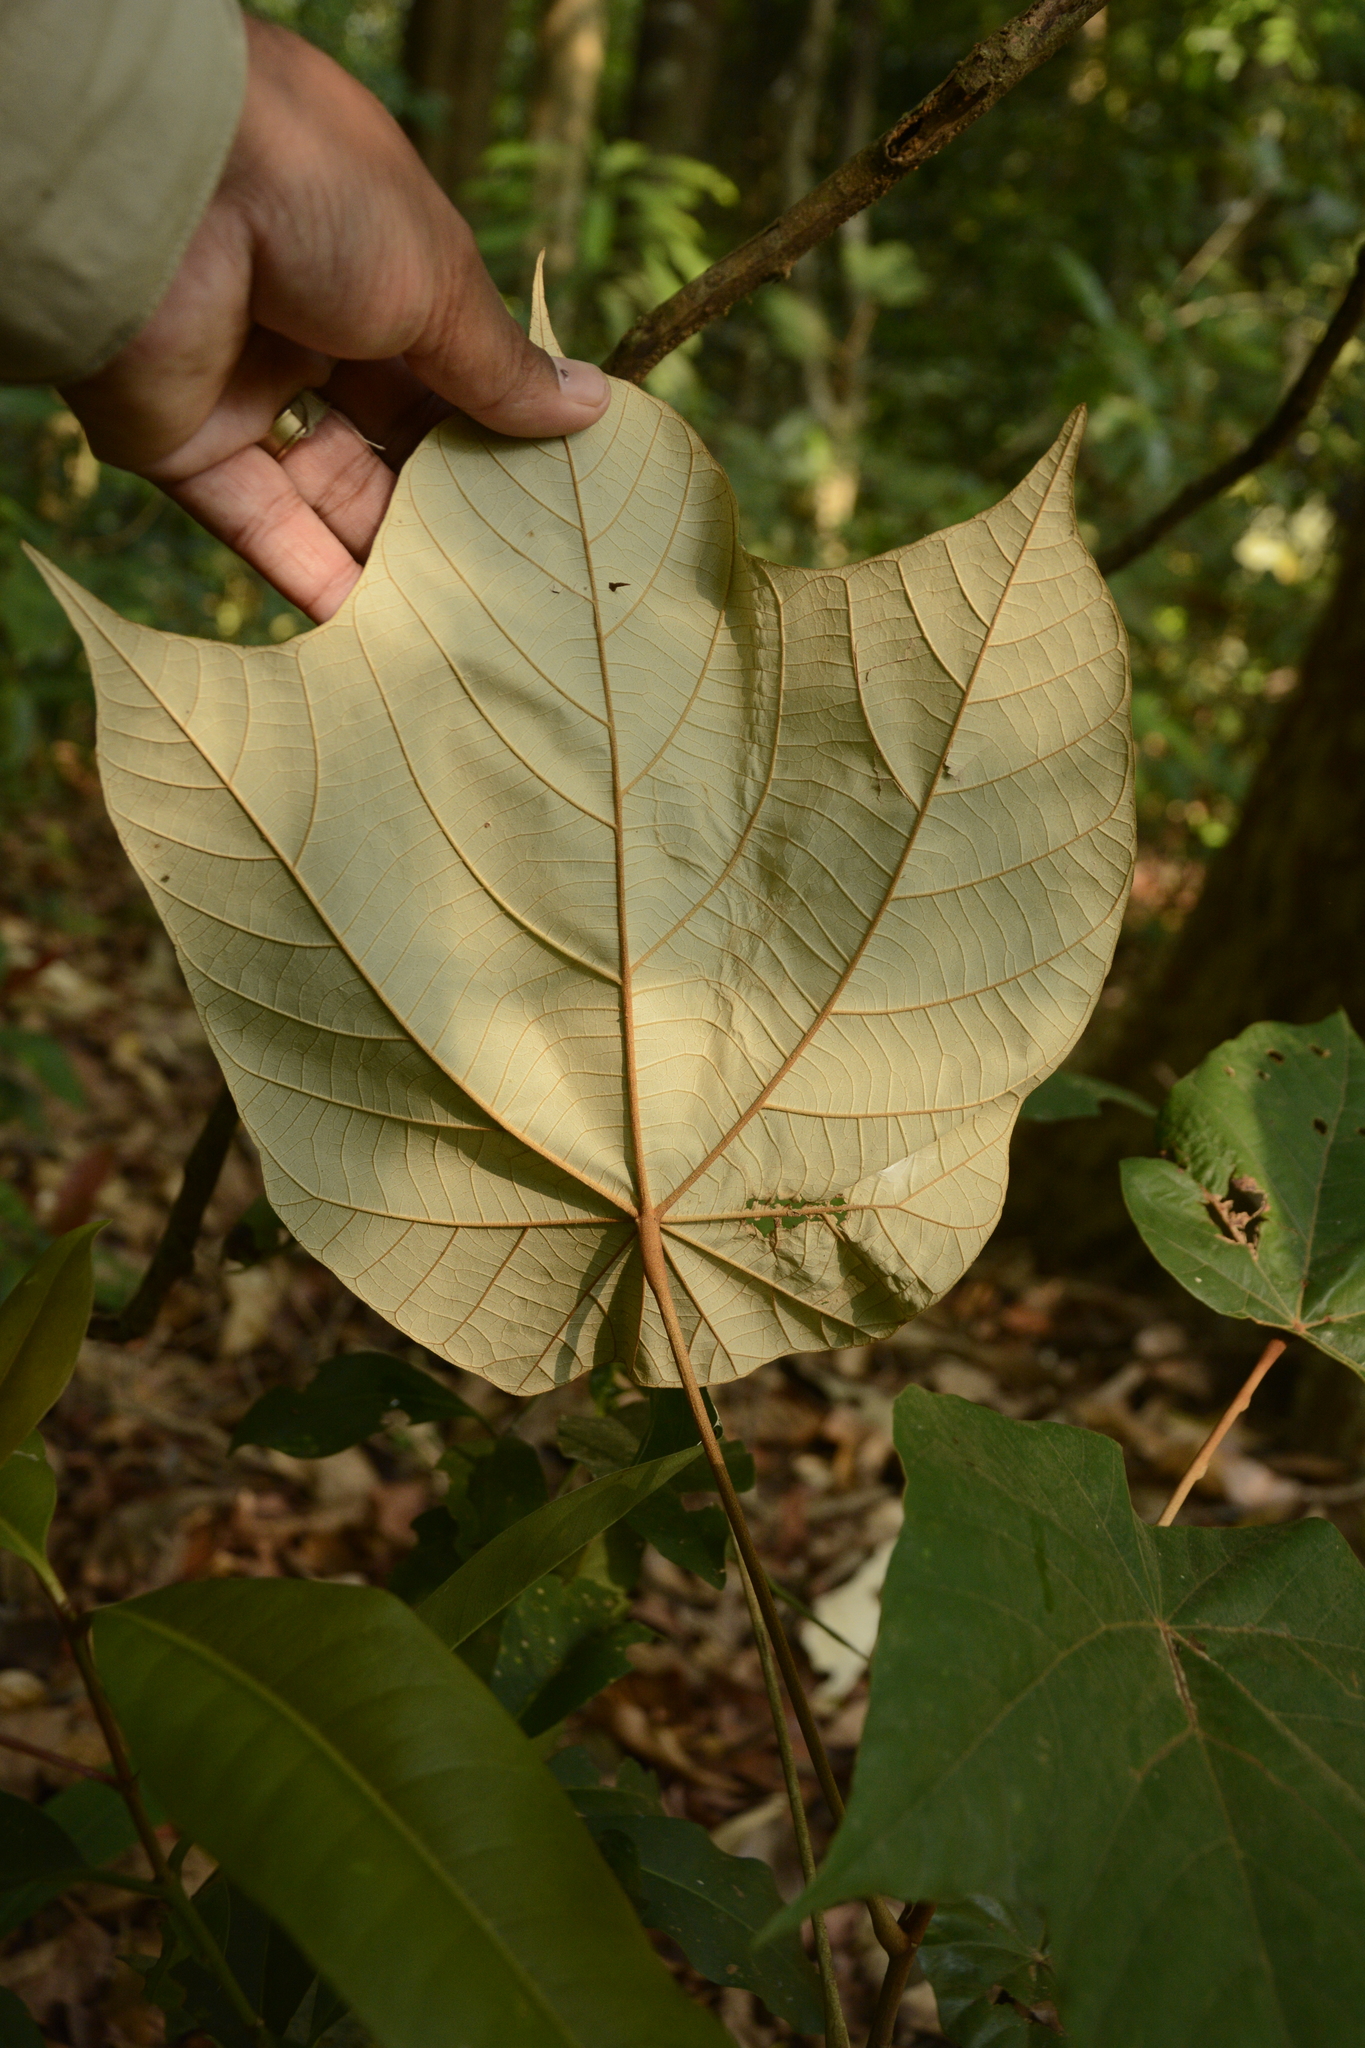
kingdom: Plantae
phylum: Tracheophyta
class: Magnoliopsida
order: Malvales
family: Malvaceae
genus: Pterospermum
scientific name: Pterospermum diversifolium
